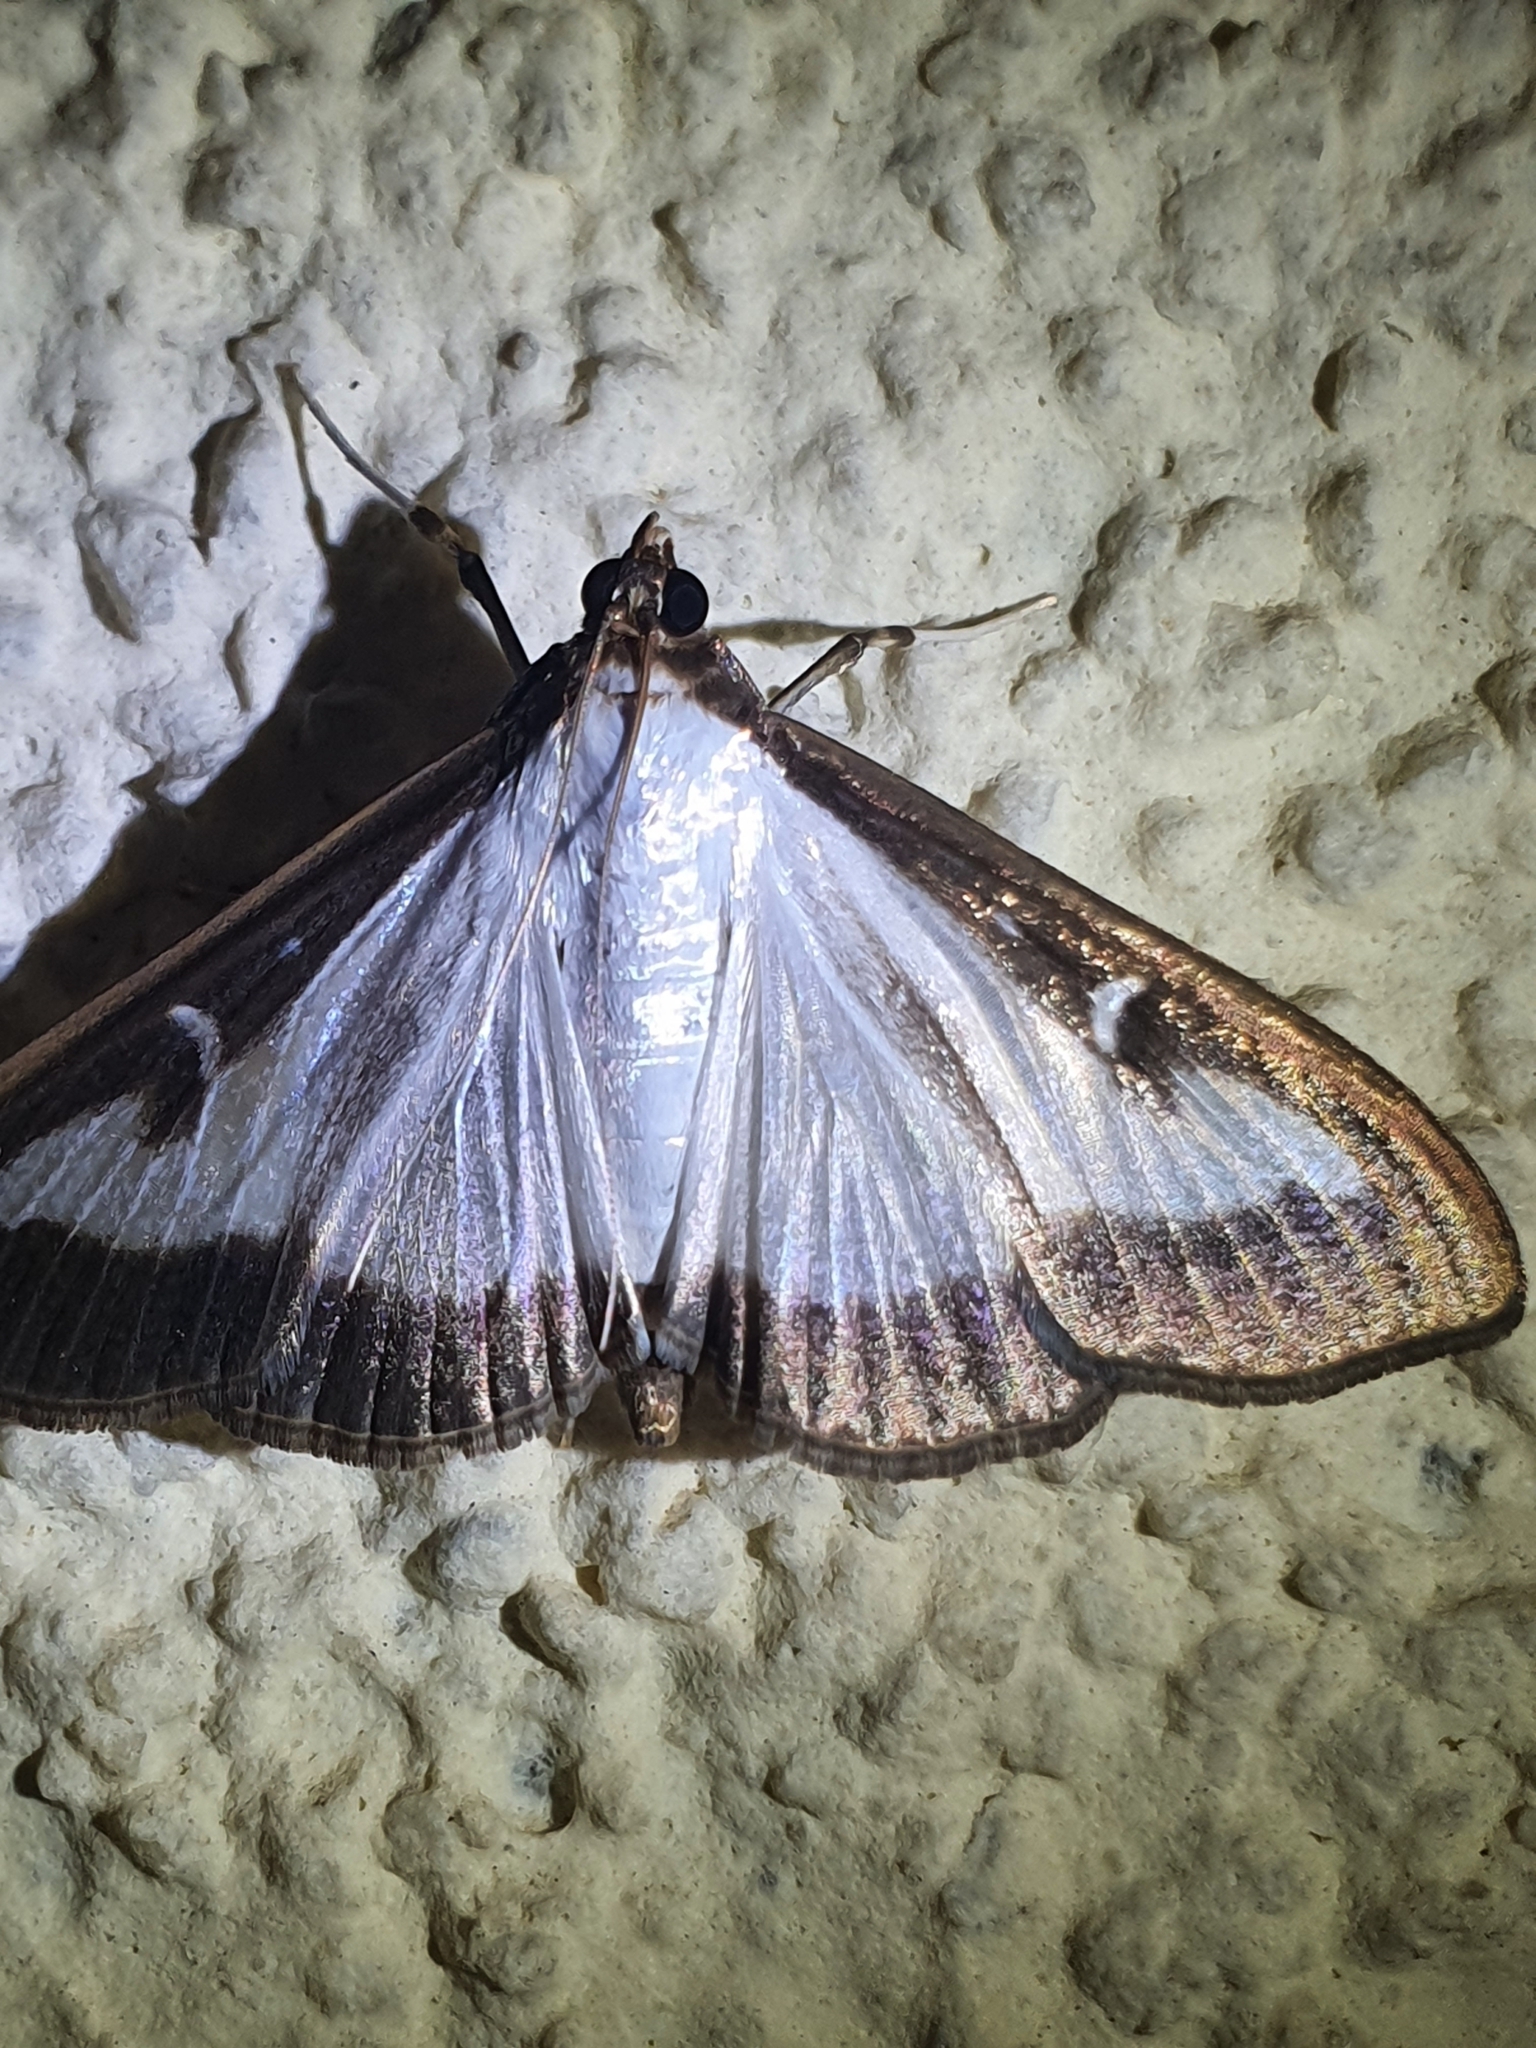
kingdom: Animalia
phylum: Arthropoda
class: Insecta
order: Lepidoptera
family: Crambidae
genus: Cydalima
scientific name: Cydalima perspectalis
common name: Box tree moth
